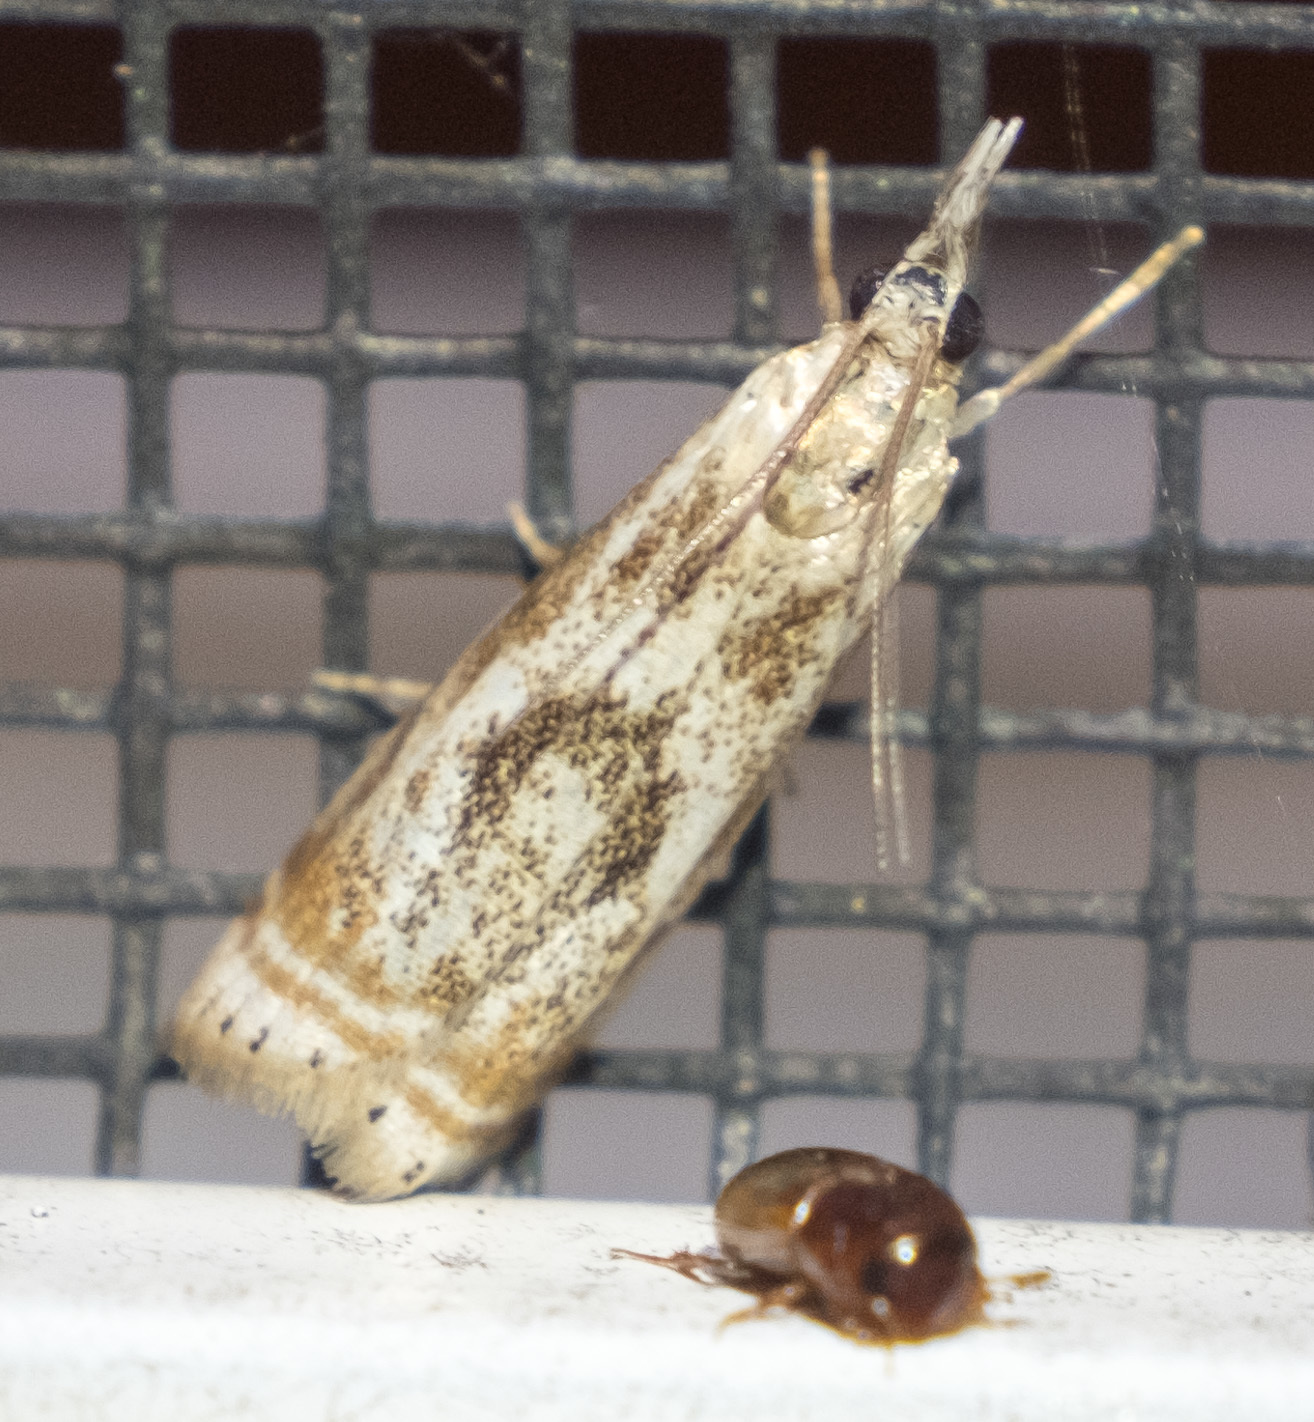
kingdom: Animalia
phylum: Arthropoda
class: Insecta
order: Lepidoptera
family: Crambidae
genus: Microcrambus
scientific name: Microcrambus elegans
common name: Elegant grass-veneer
